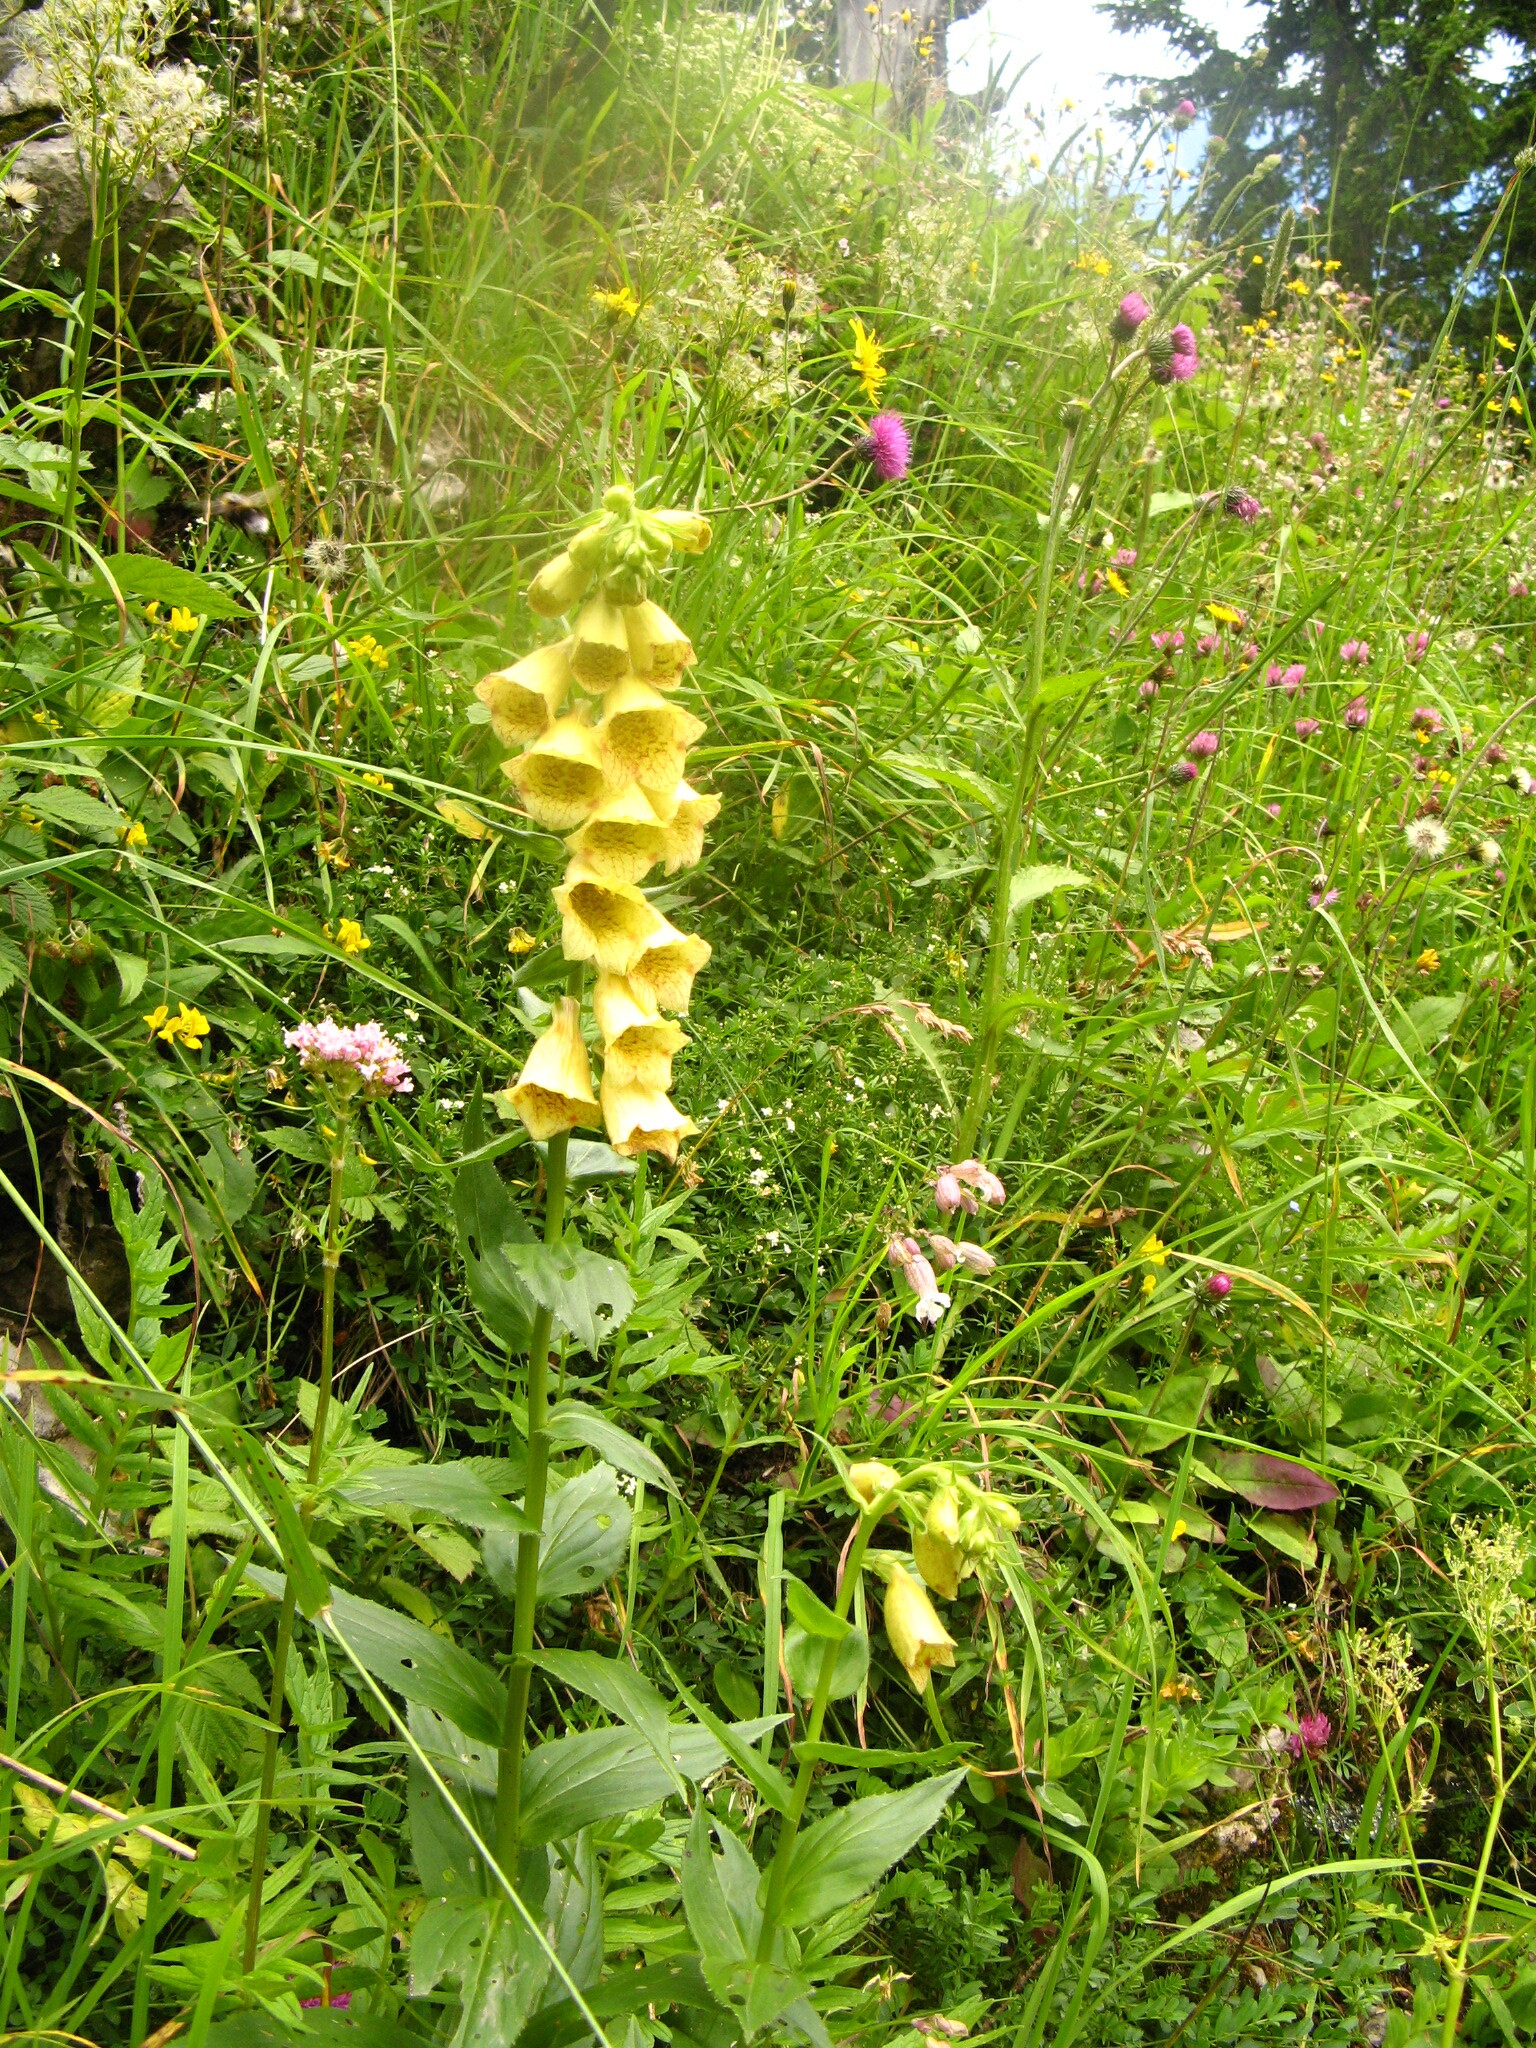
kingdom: Plantae
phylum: Tracheophyta
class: Magnoliopsida
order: Lamiales
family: Plantaginaceae
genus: Digitalis
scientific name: Digitalis grandiflora
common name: Yellow foxglove
